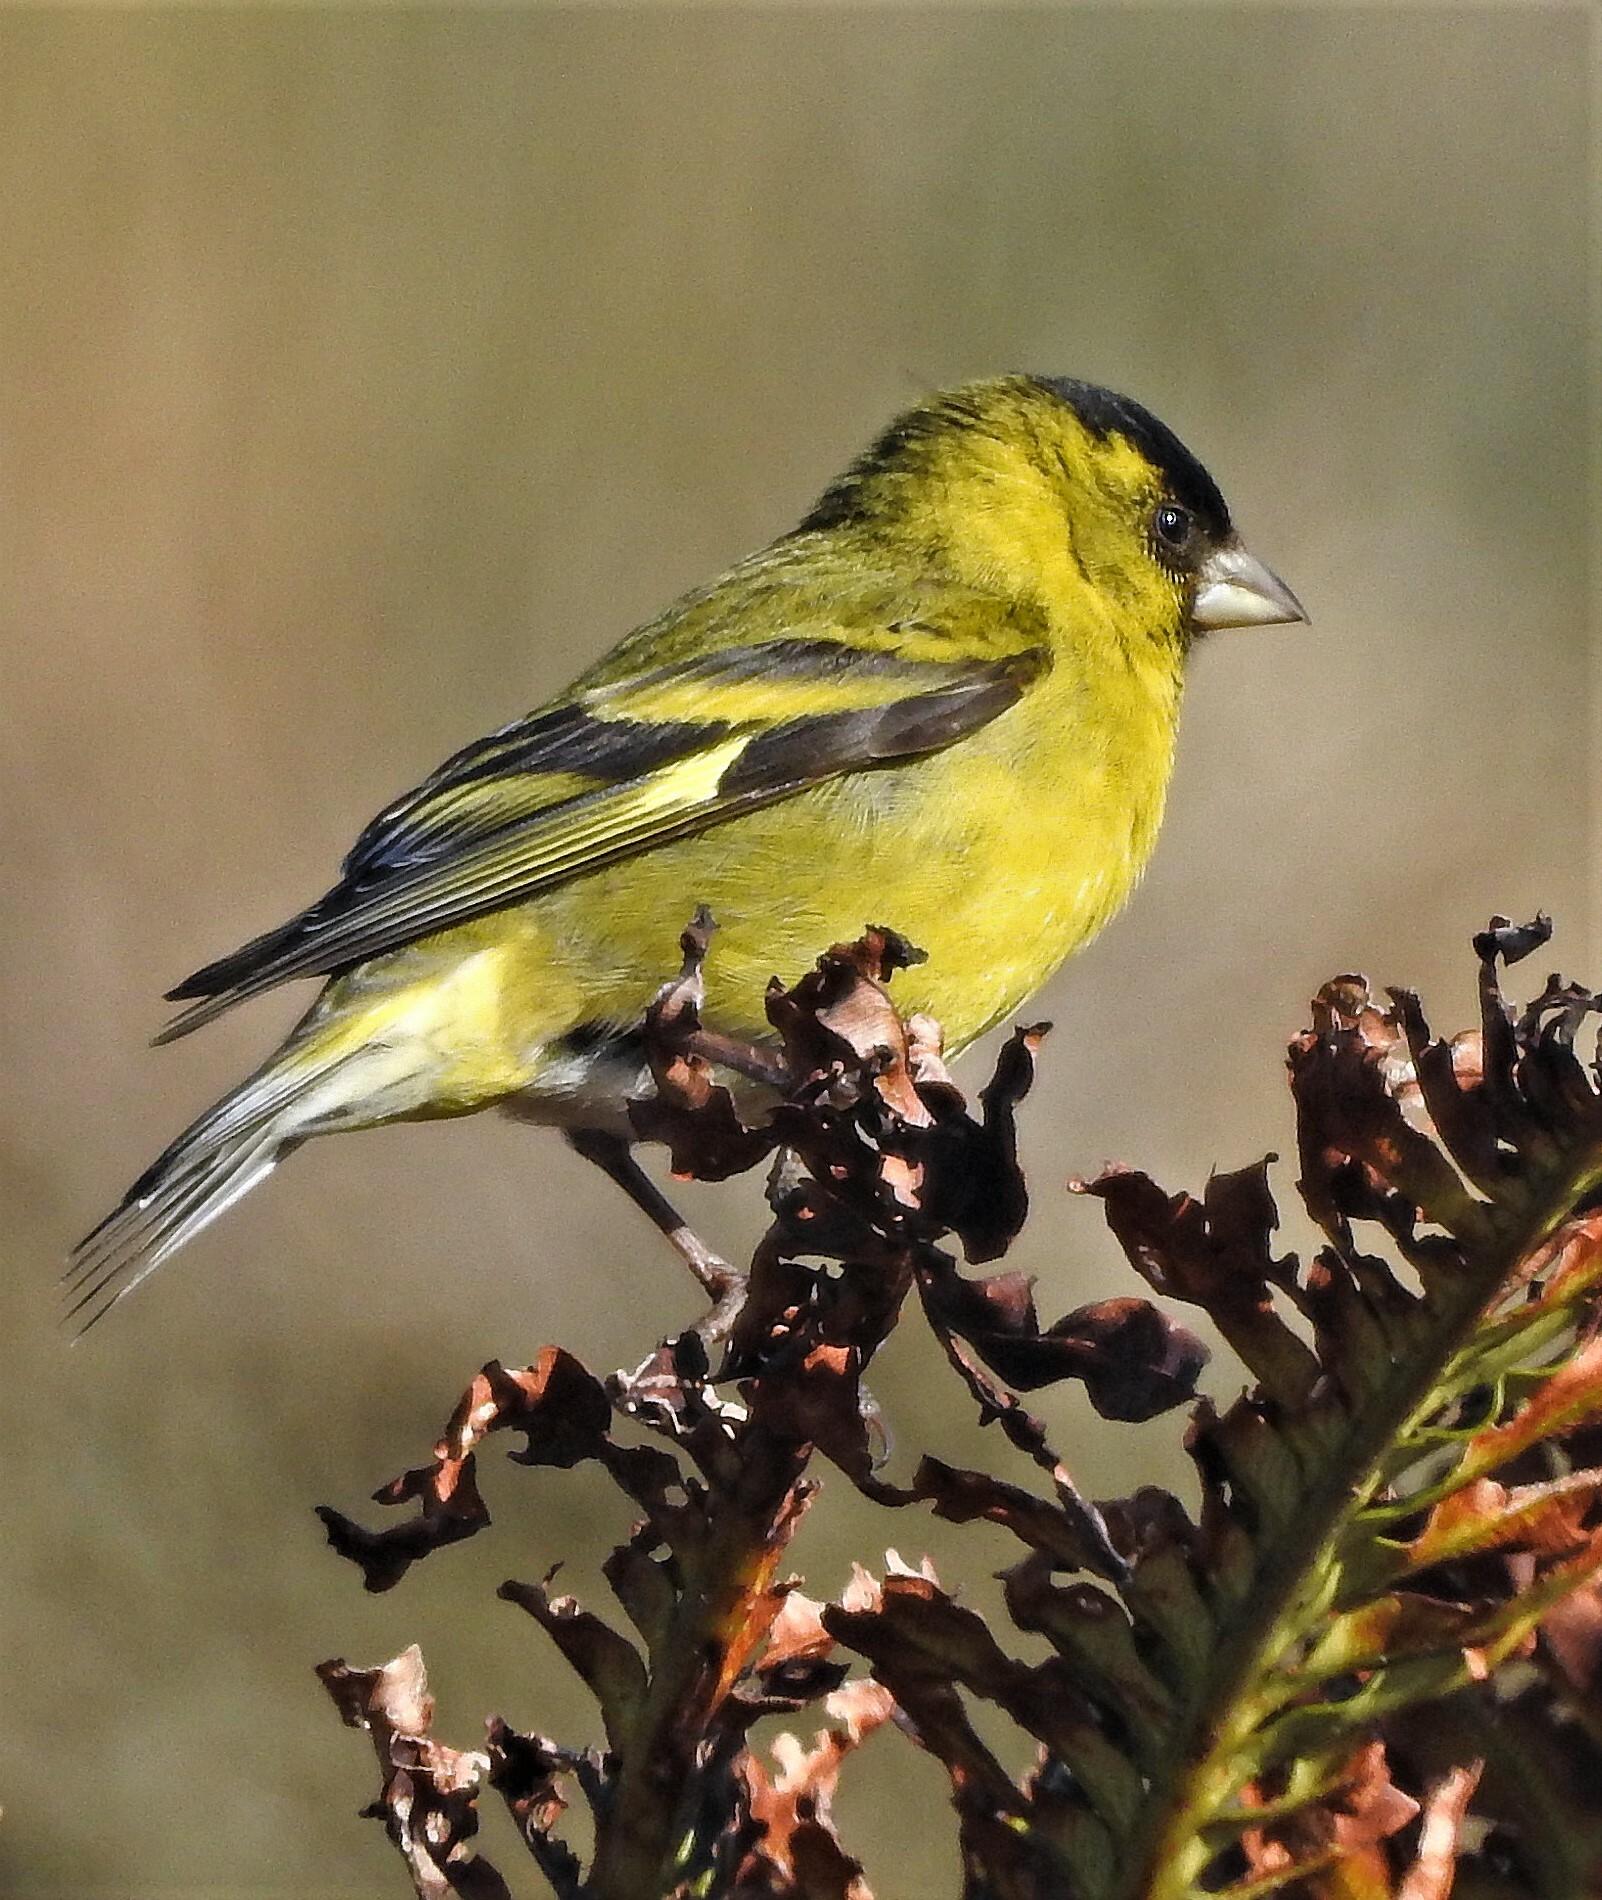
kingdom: Animalia
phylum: Chordata
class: Aves
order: Passeriformes
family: Fringillidae
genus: Spinus
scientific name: Spinus barbatus
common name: Black-chinned siskin
